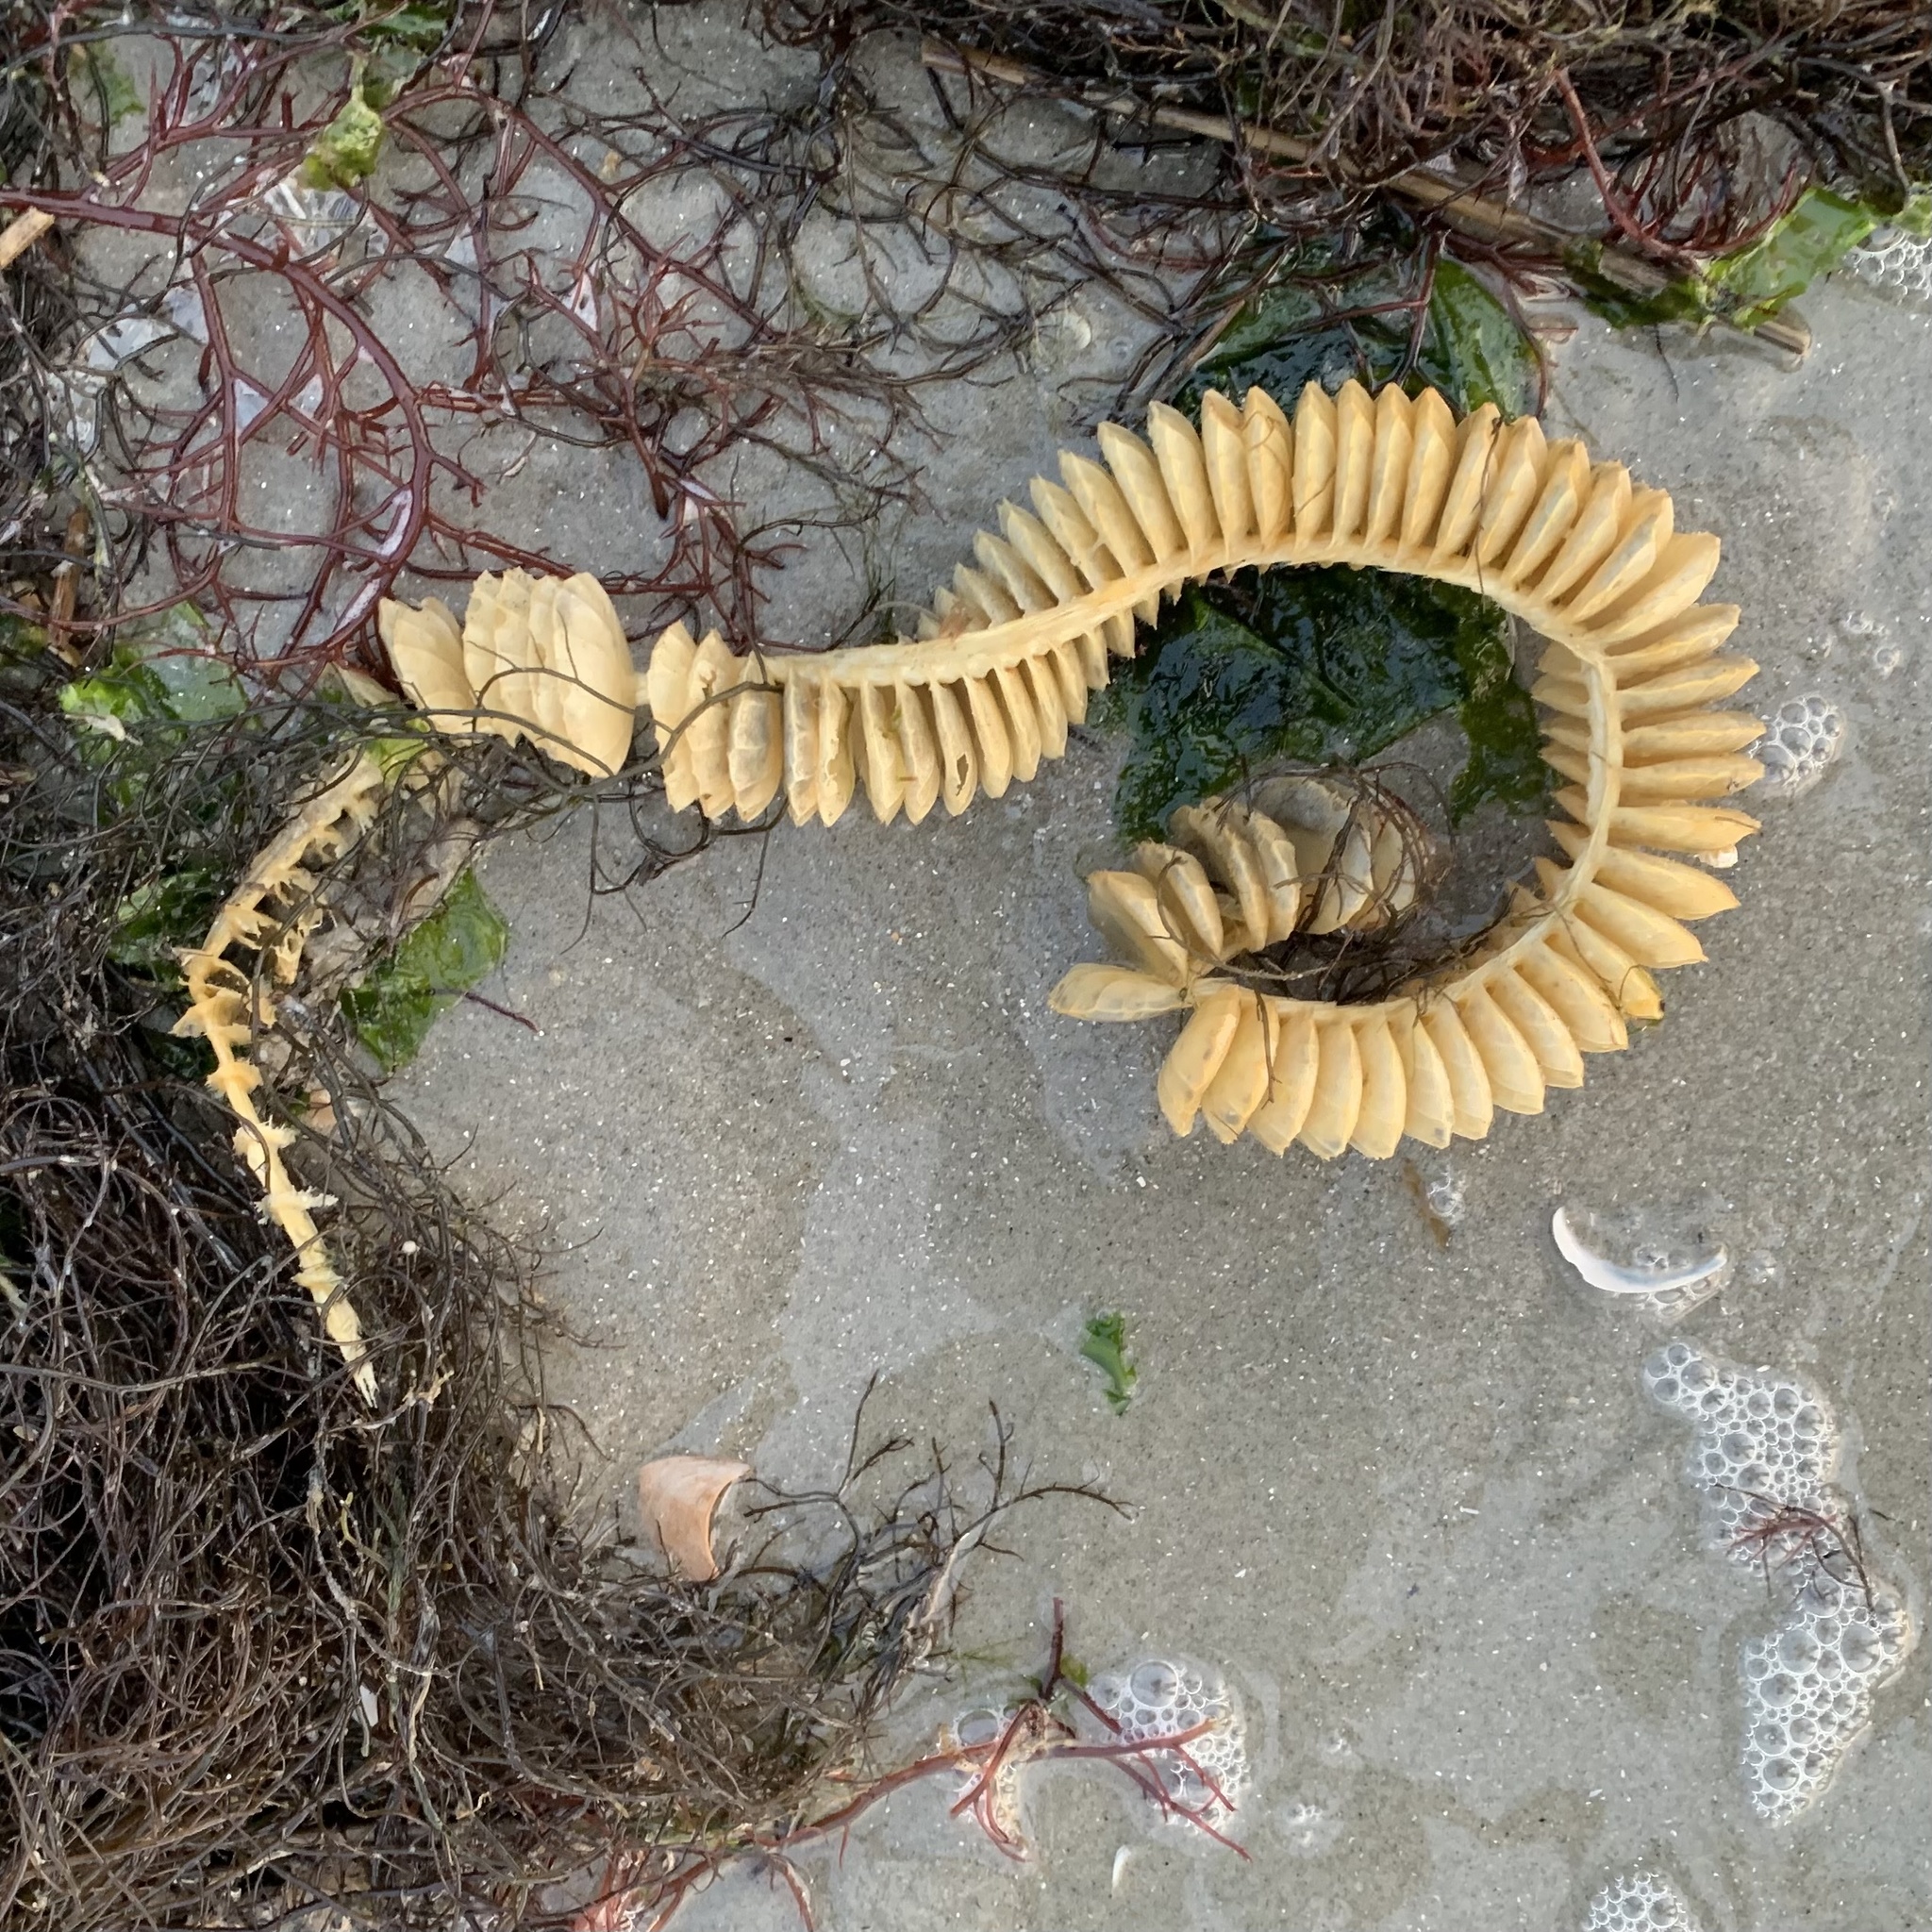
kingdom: Animalia
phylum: Mollusca
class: Gastropoda
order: Neogastropoda
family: Busyconidae
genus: Busycotypus
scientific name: Busycotypus canaliculatus
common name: Channeled whelk
